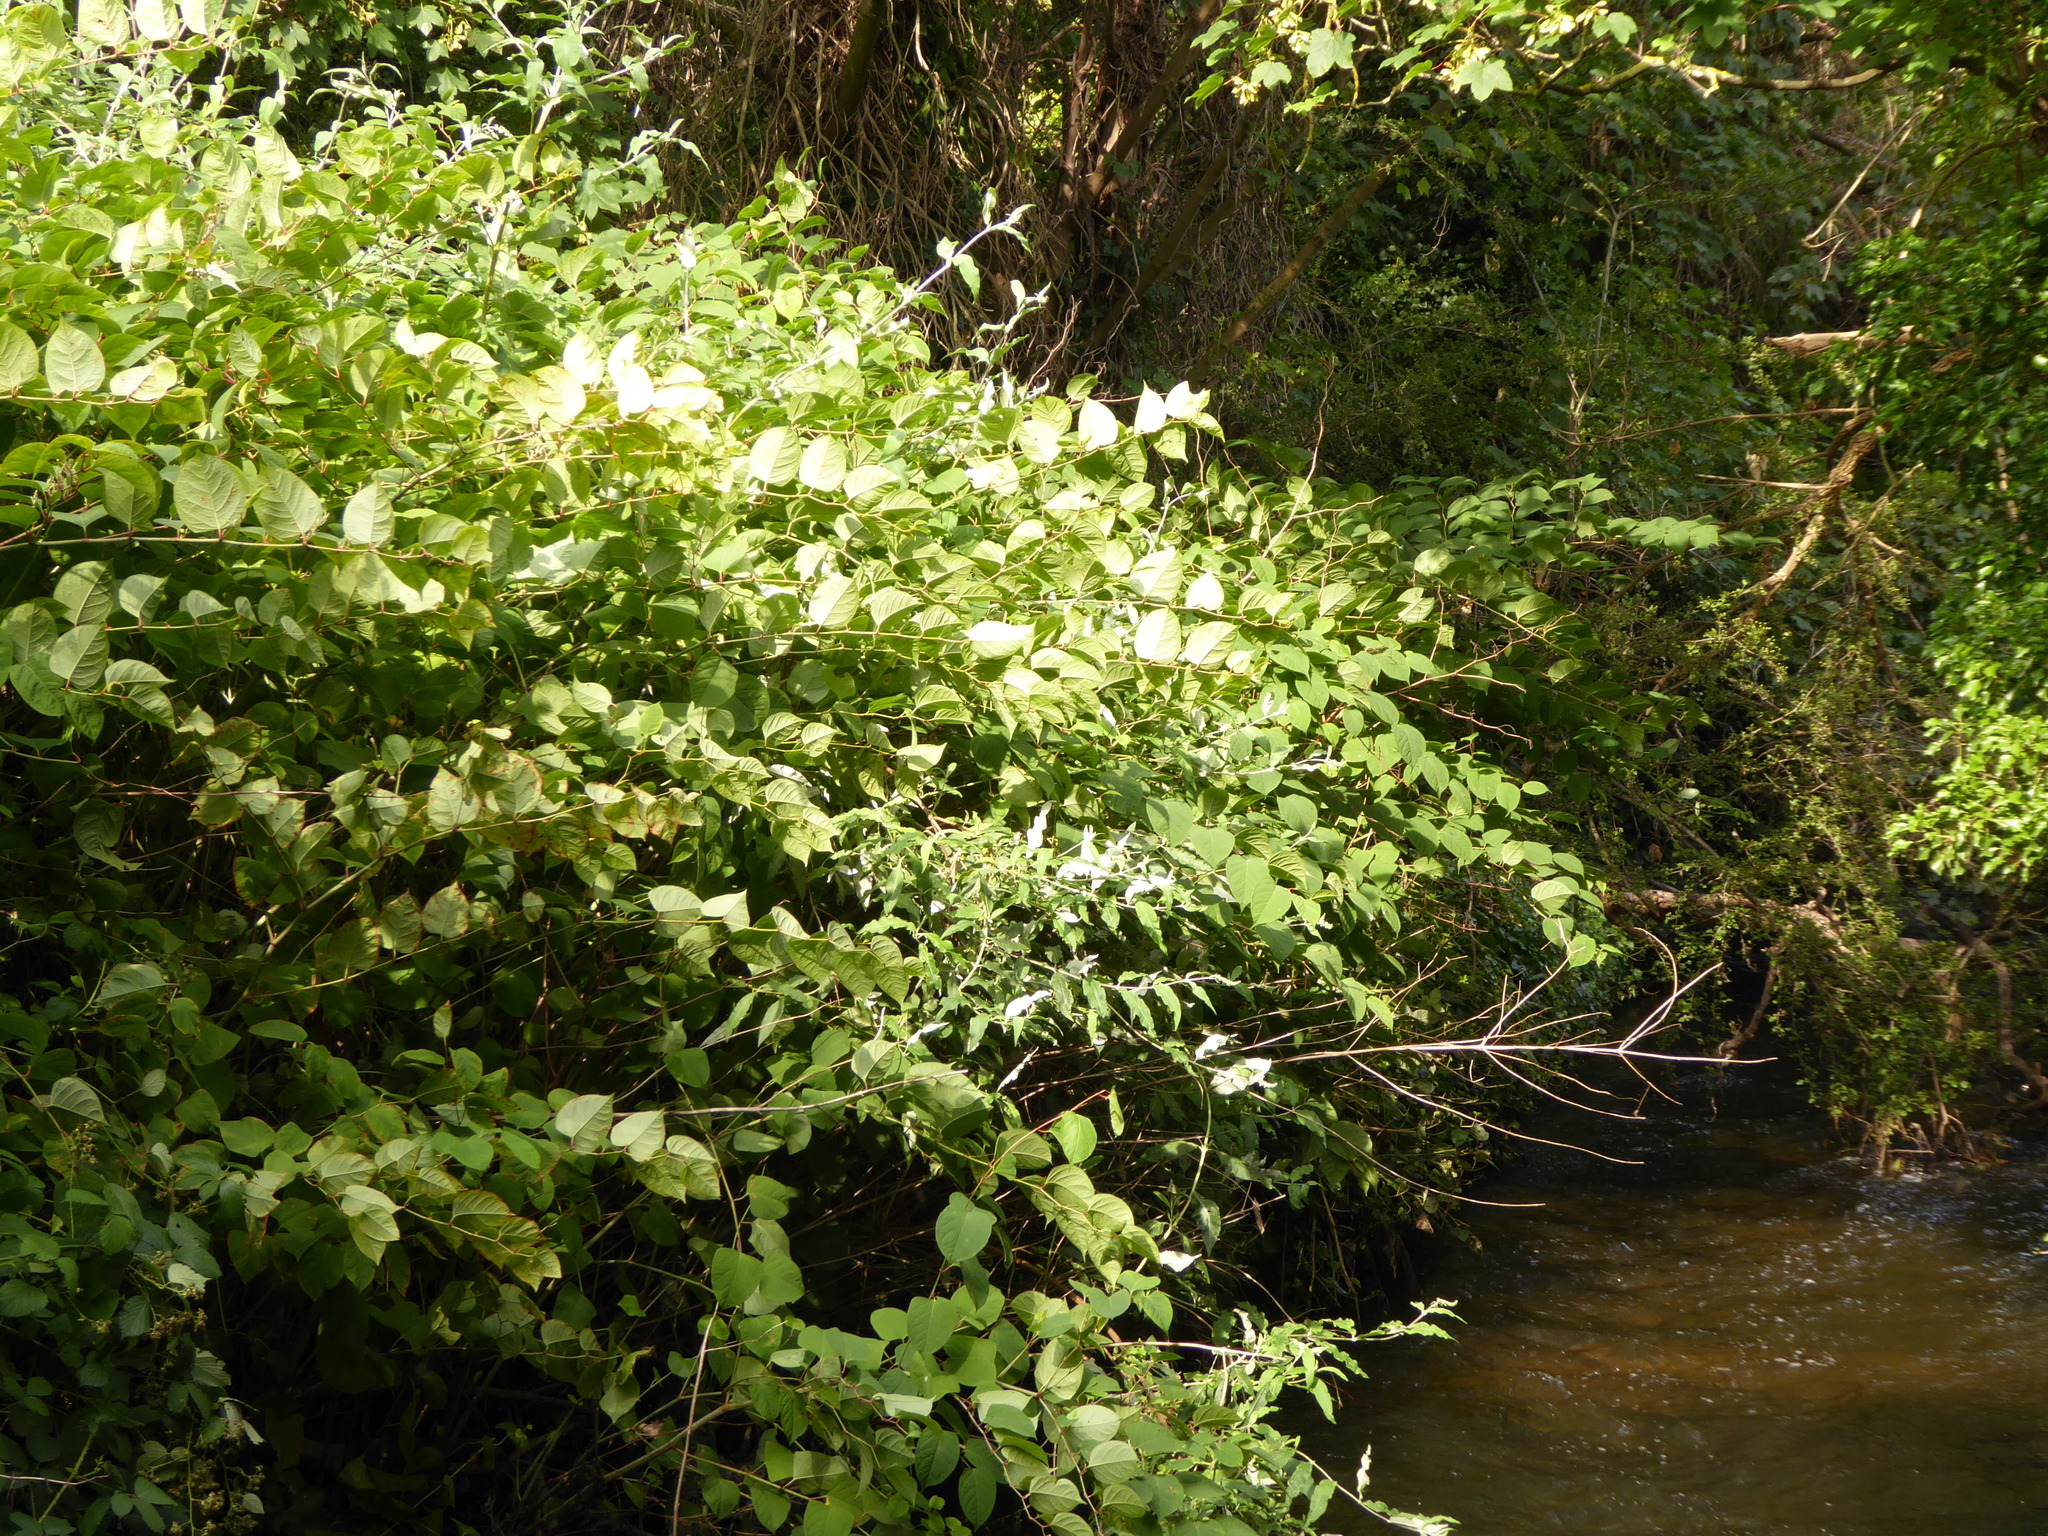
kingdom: Plantae
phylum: Tracheophyta
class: Magnoliopsida
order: Caryophyllales
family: Polygonaceae
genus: Reynoutria
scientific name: Reynoutria japonica
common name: Japanese knotweed
